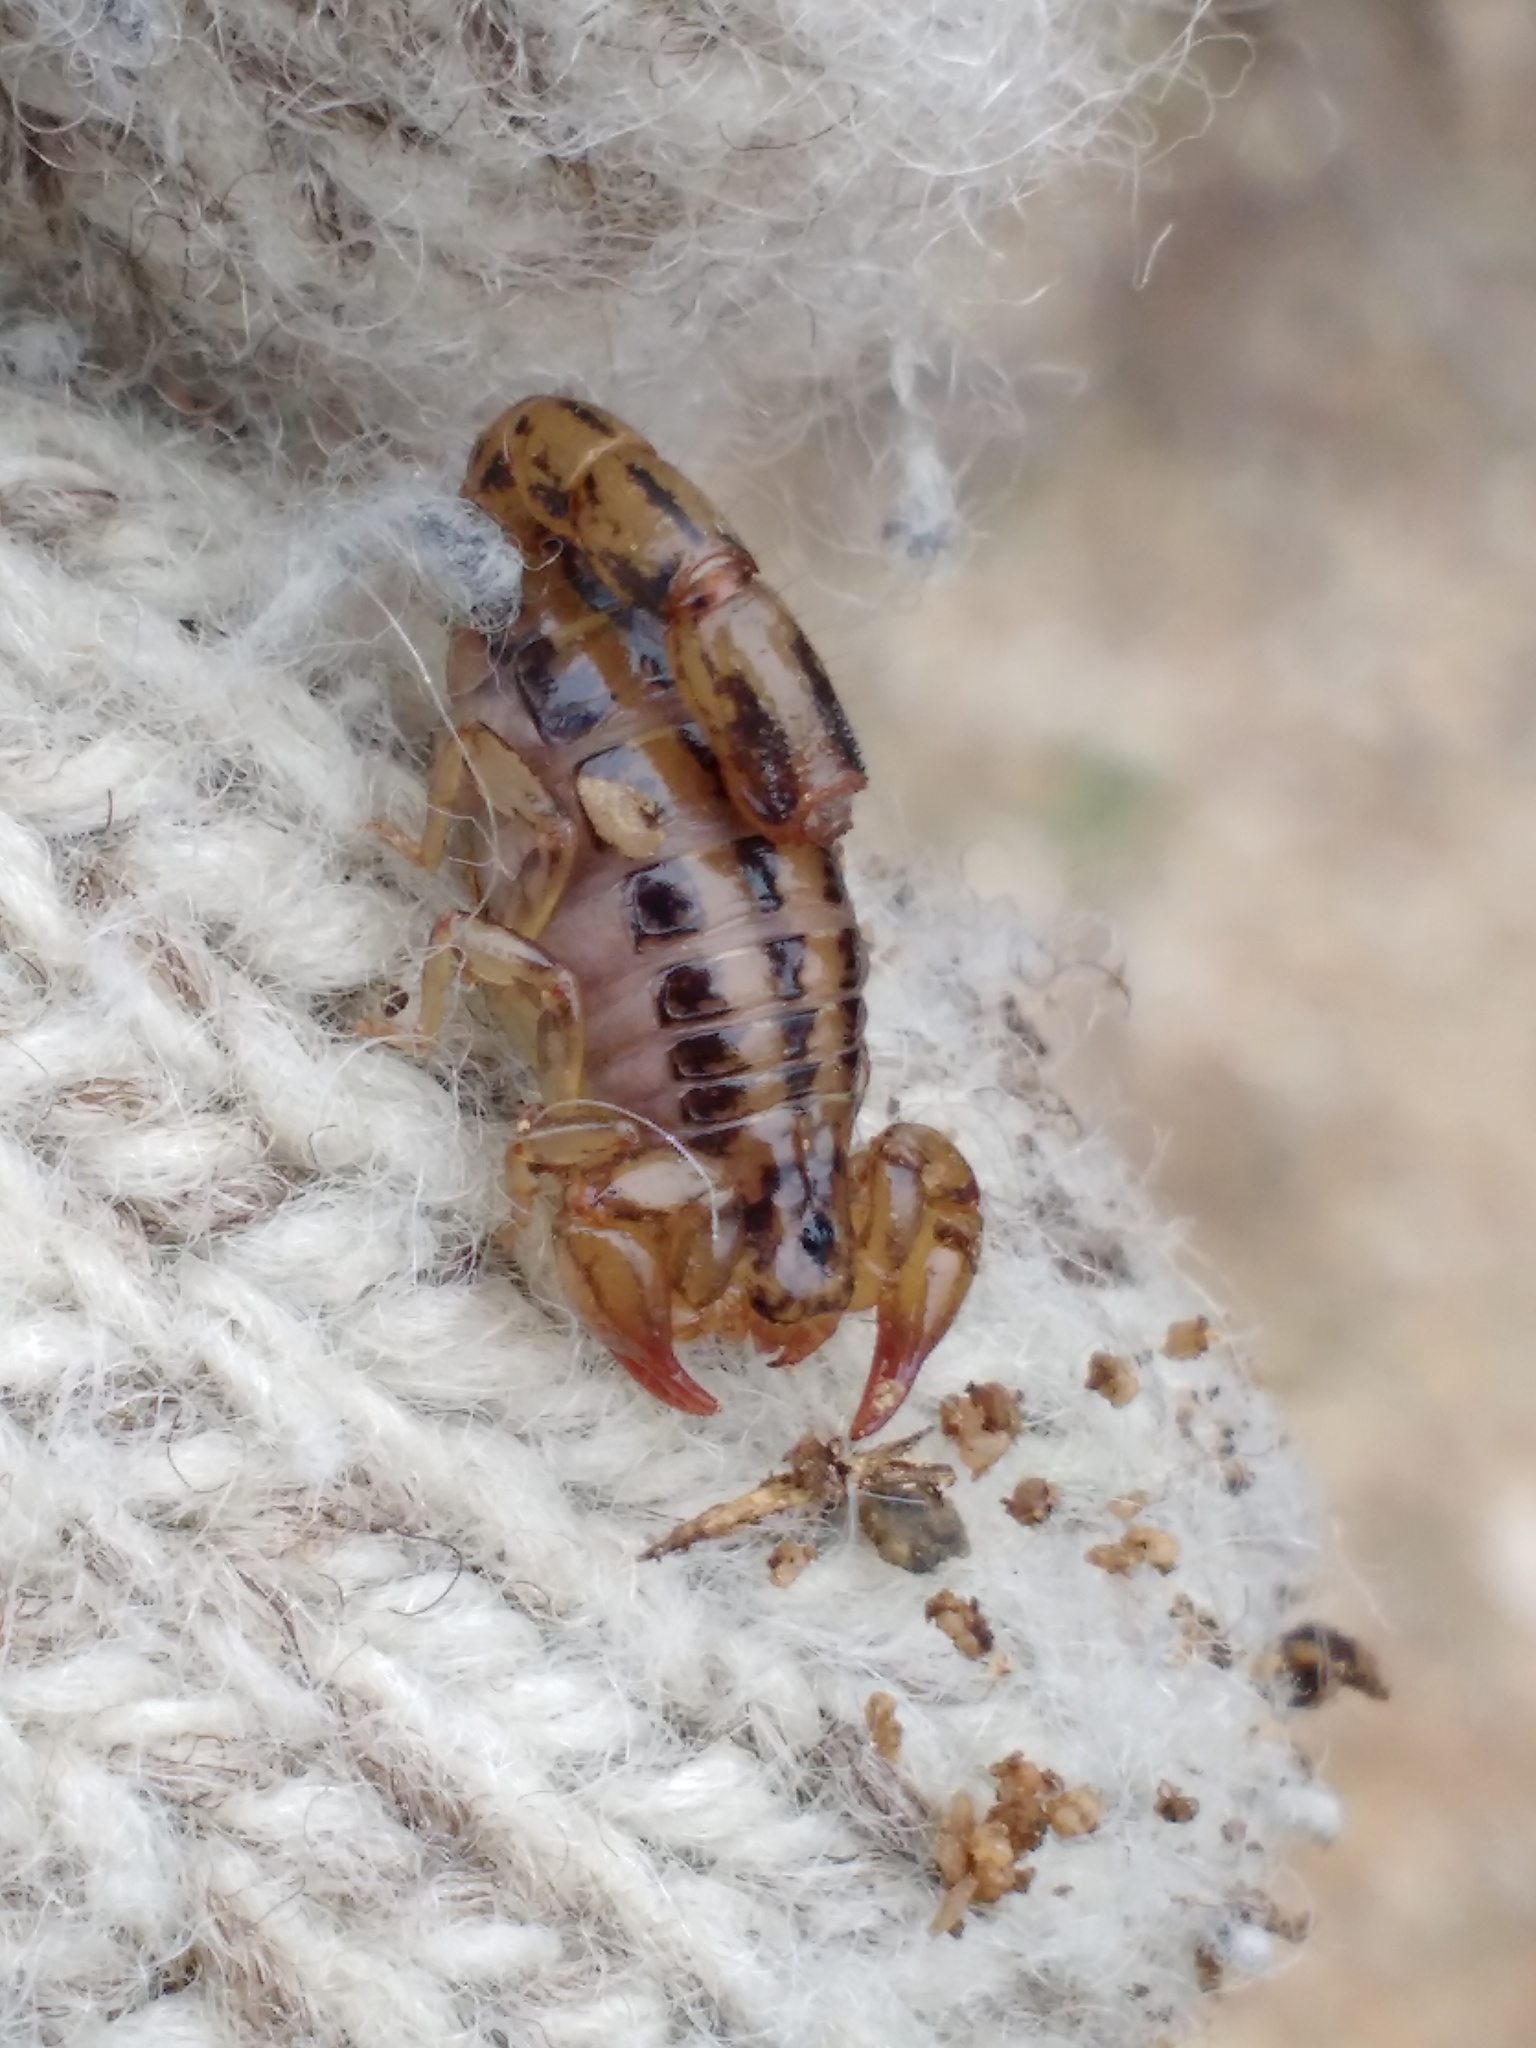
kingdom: Animalia
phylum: Arthropoda
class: Arachnida
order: Scorpiones
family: Superstitioniidae
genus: Superstitionia
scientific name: Superstitionia donensis
